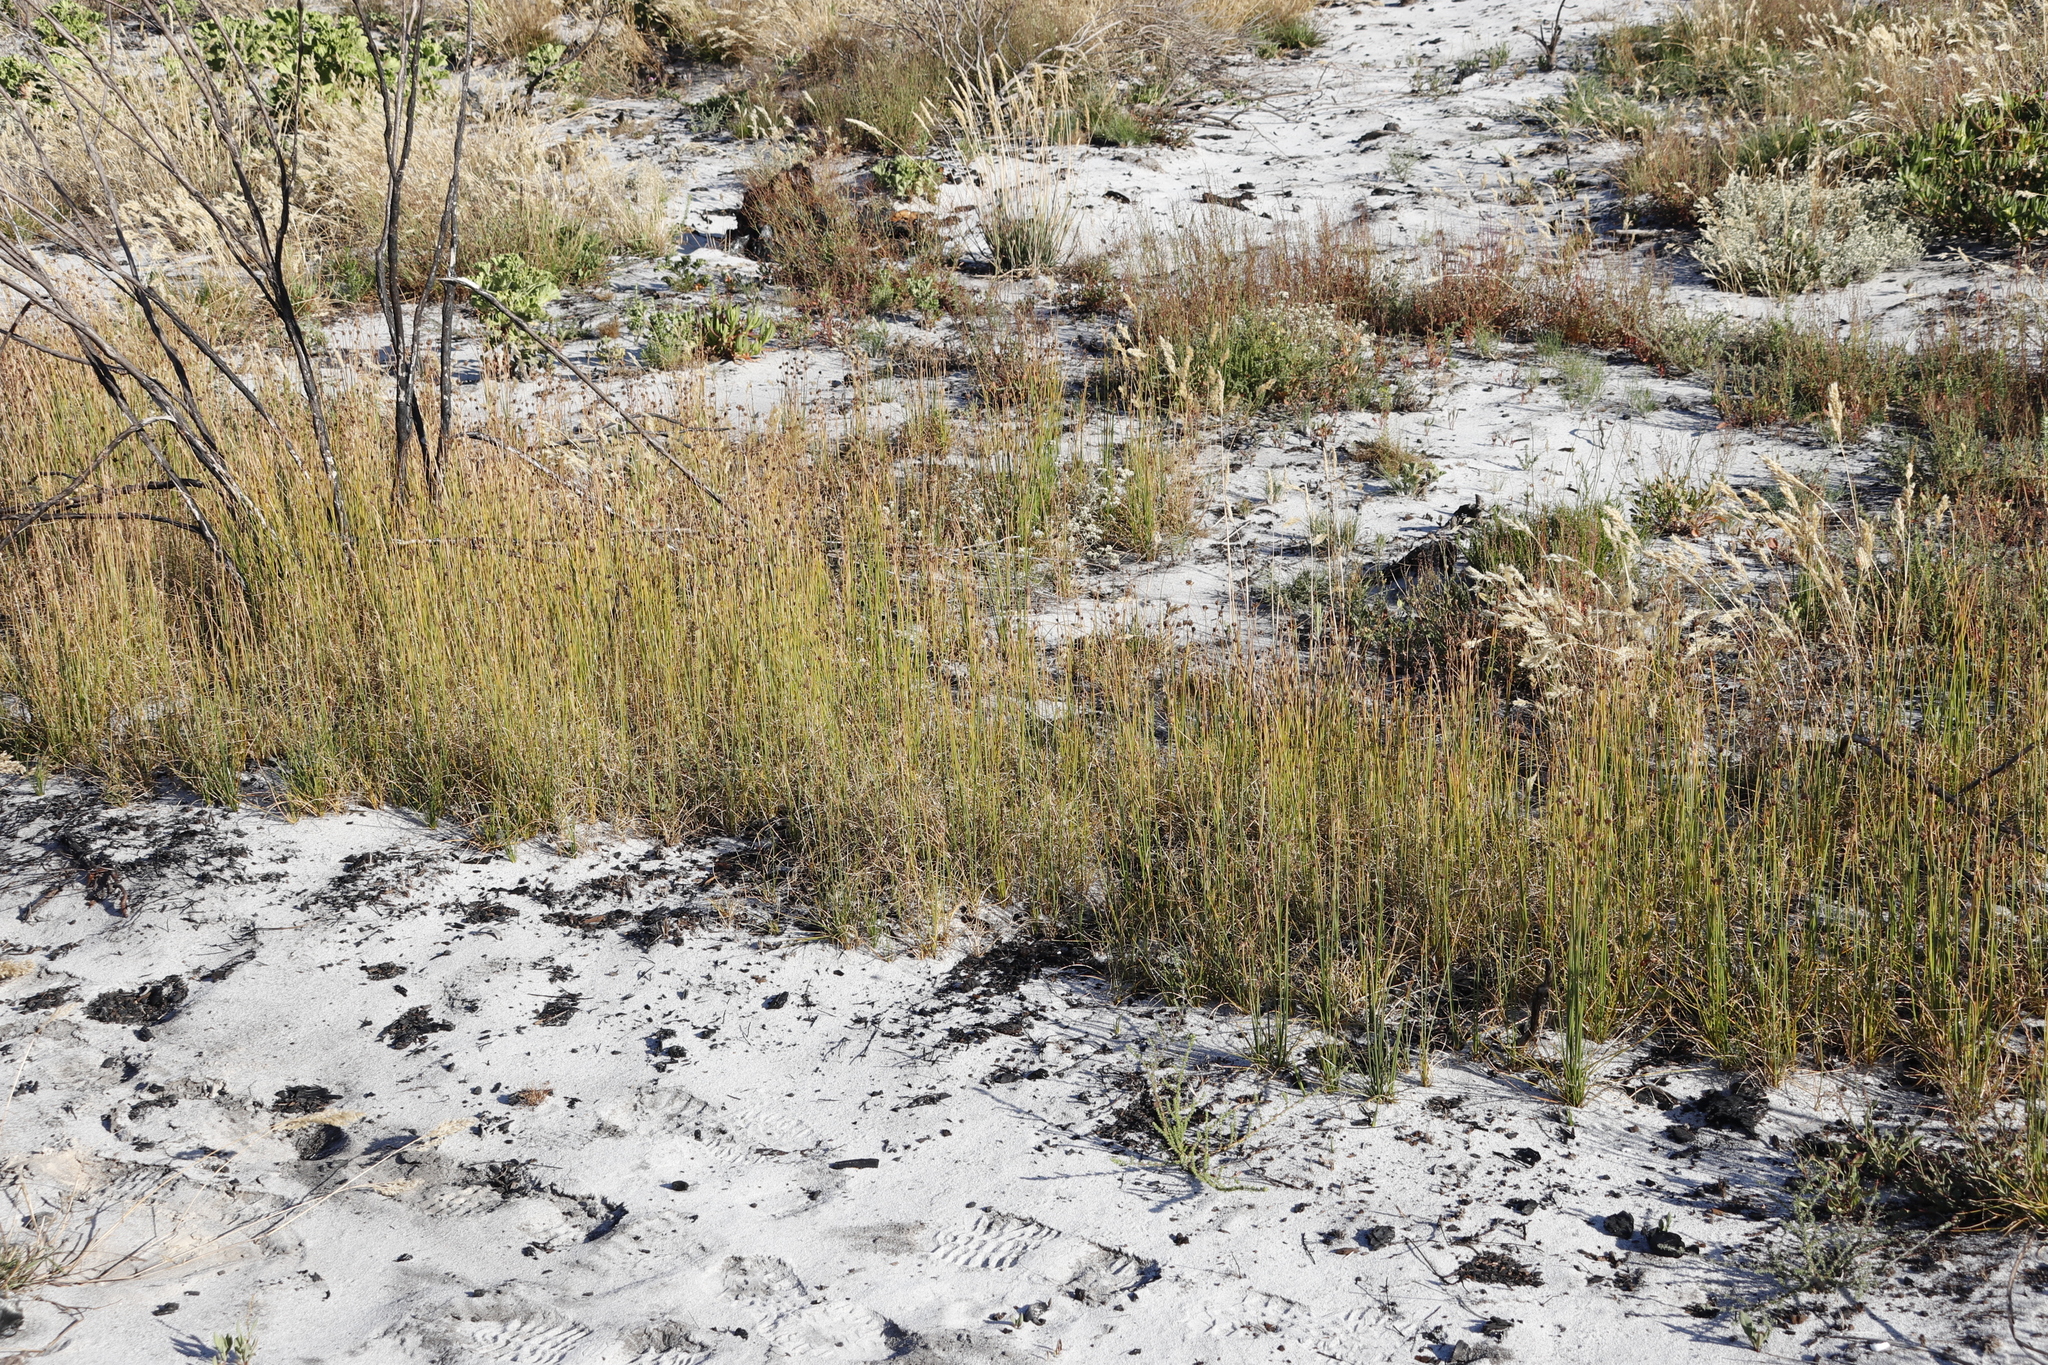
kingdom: Plantae
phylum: Tracheophyta
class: Liliopsida
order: Poales
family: Cyperaceae
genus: Ficinia
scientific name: Ficinia indica
